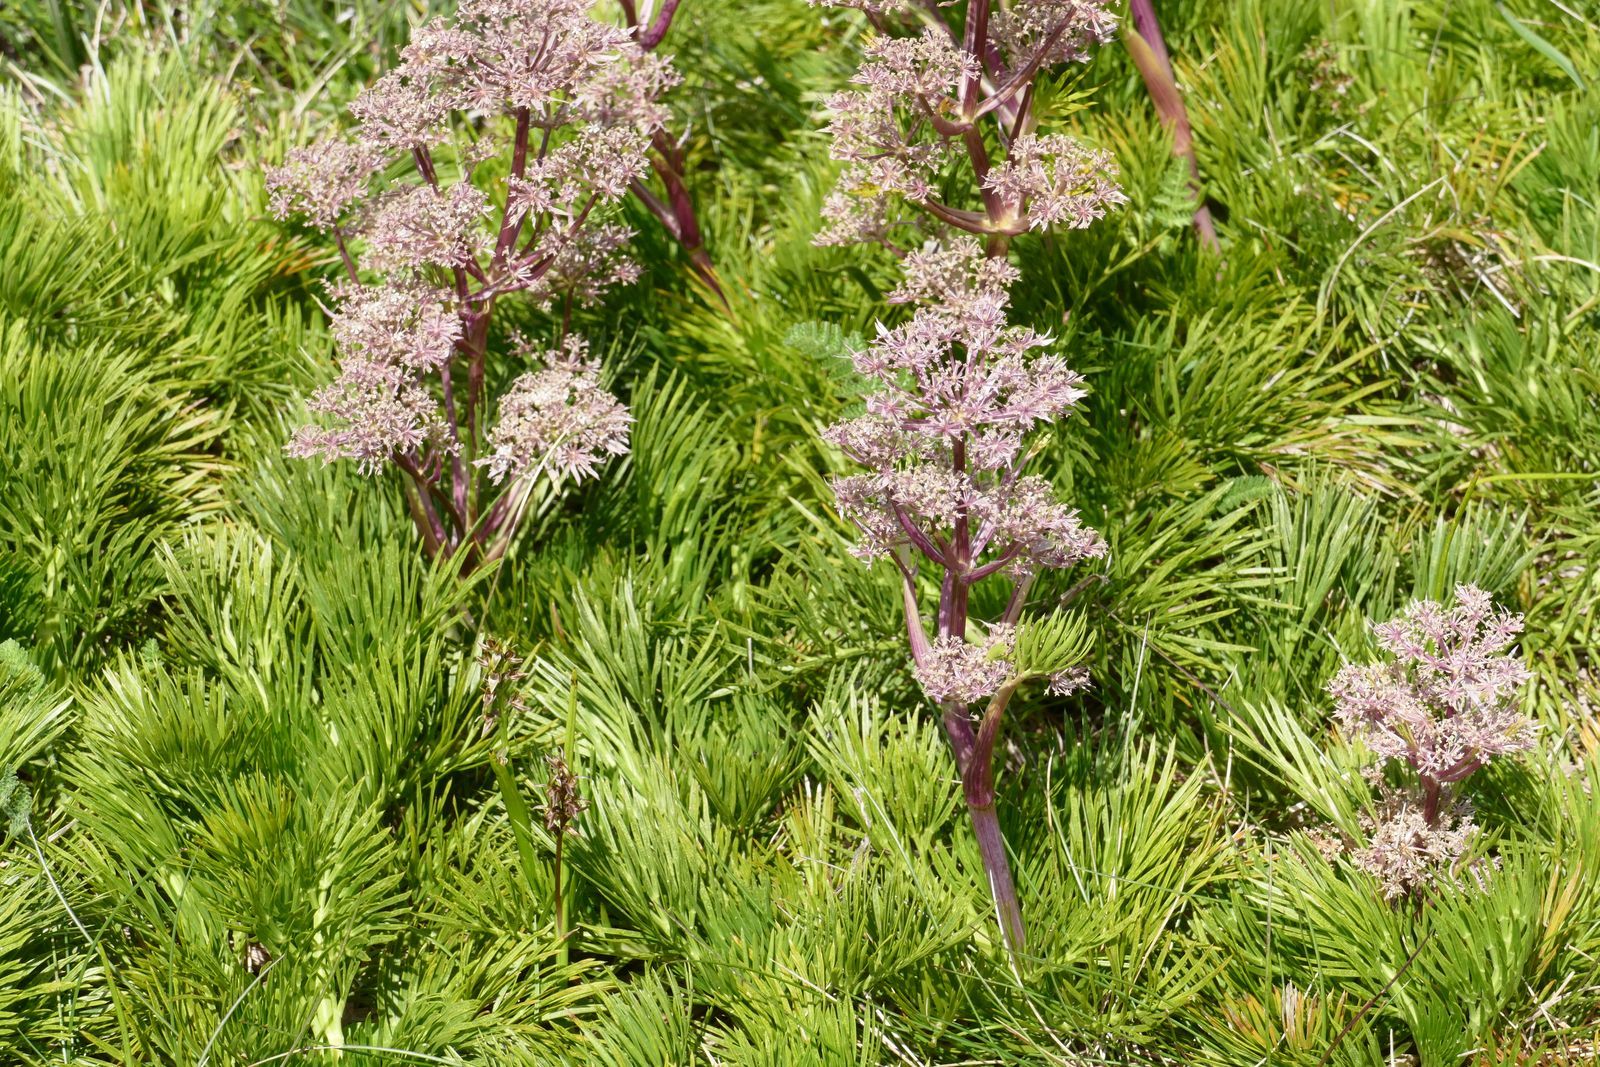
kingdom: Plantae
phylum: Tracheophyta
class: Magnoliopsida
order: Apiales
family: Apiaceae
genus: Aciphylla
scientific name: Aciphylla glacialis
